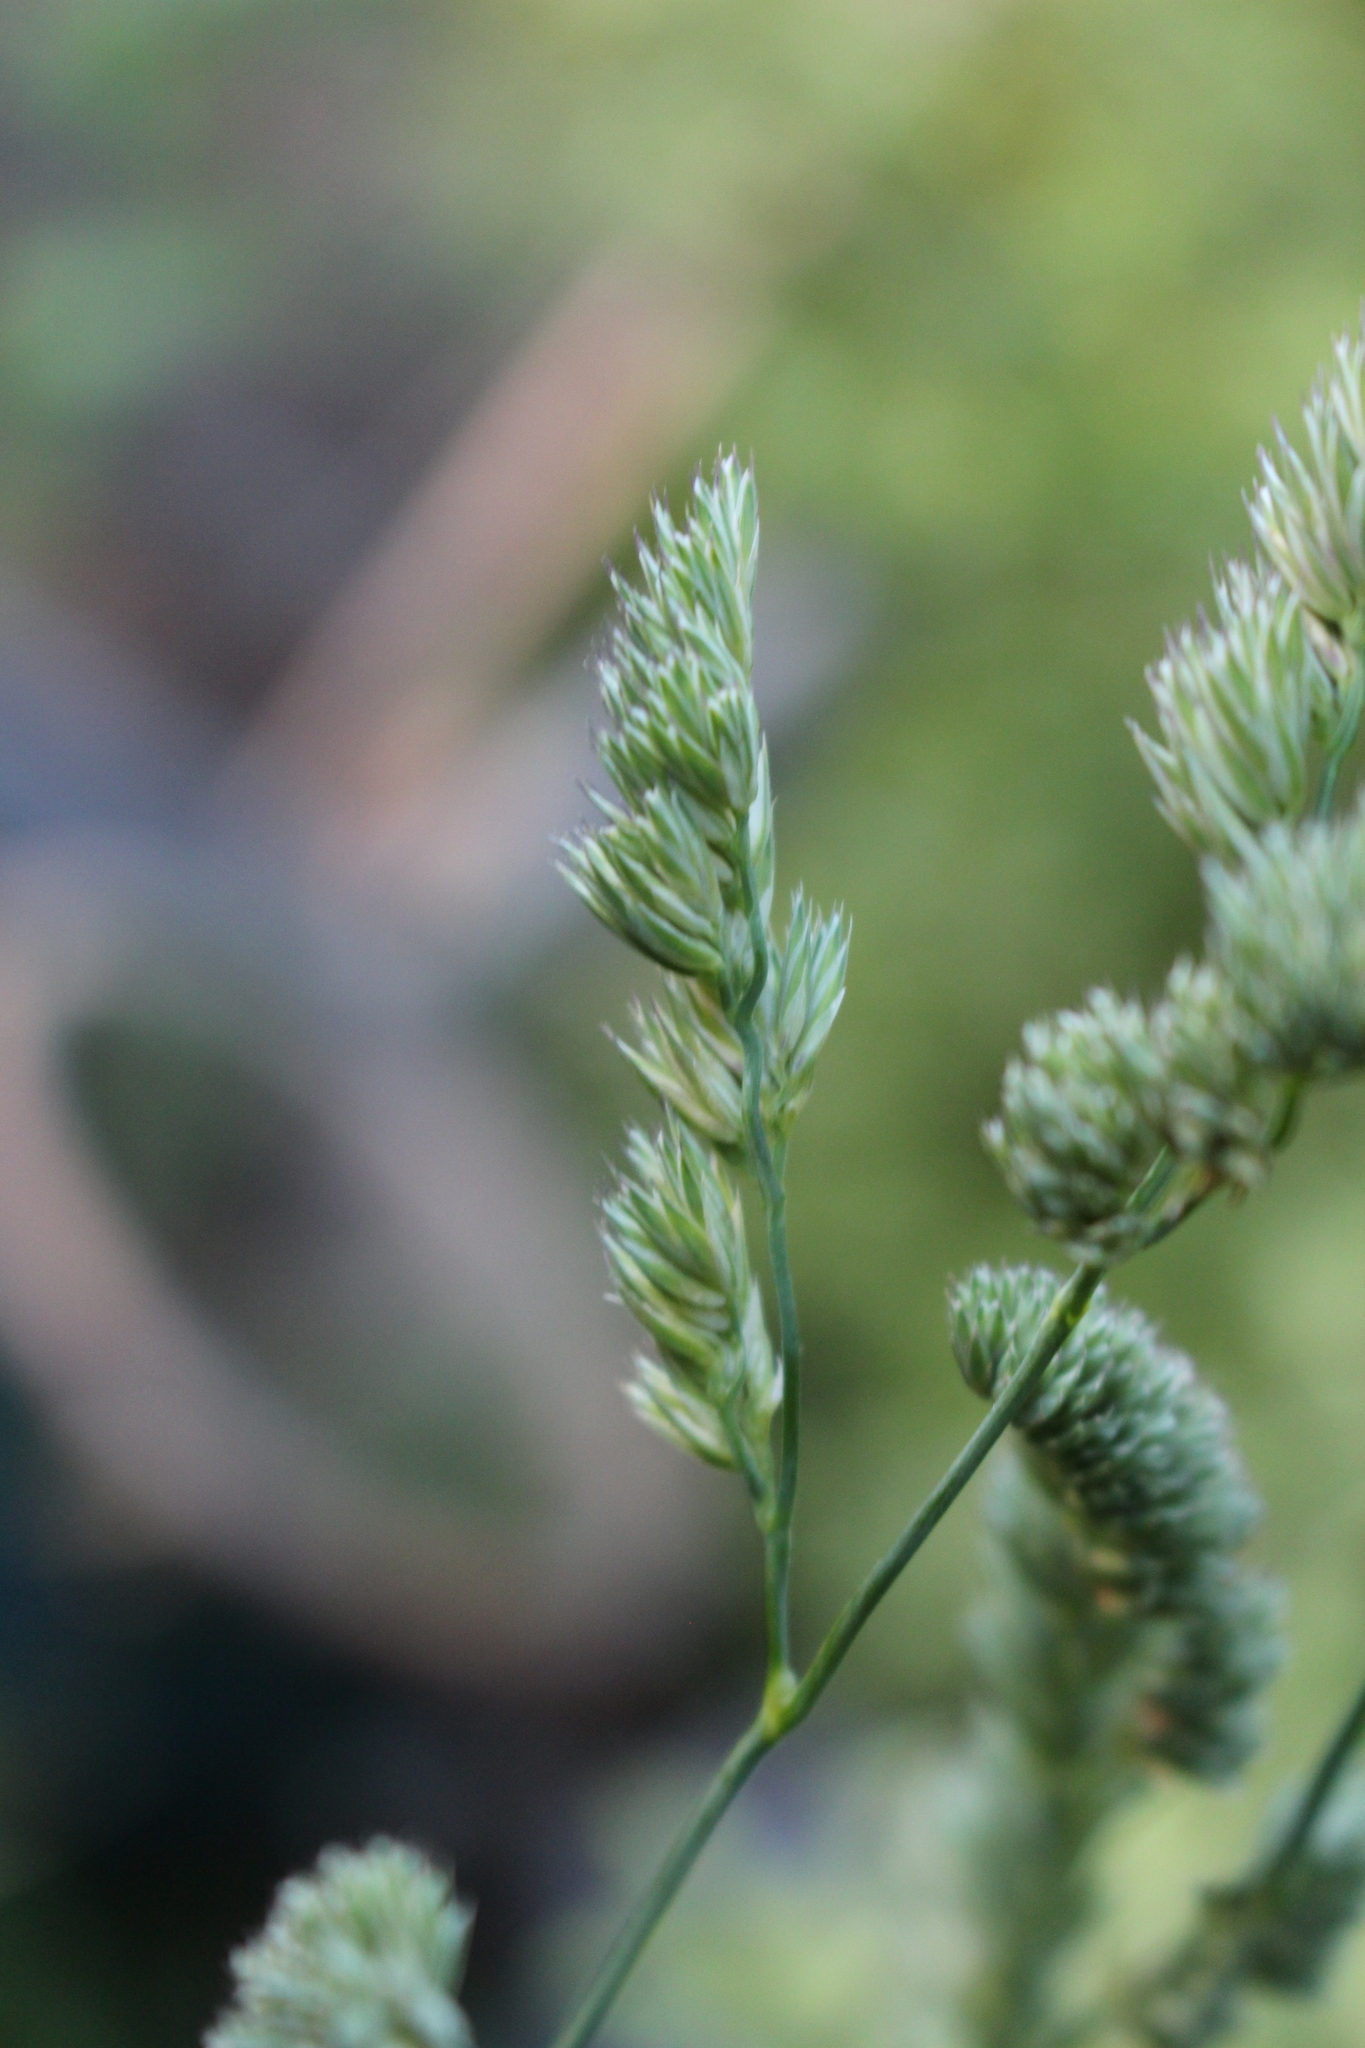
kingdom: Plantae
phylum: Tracheophyta
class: Liliopsida
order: Poales
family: Poaceae
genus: Dactylis
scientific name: Dactylis glomerata
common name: Orchardgrass
